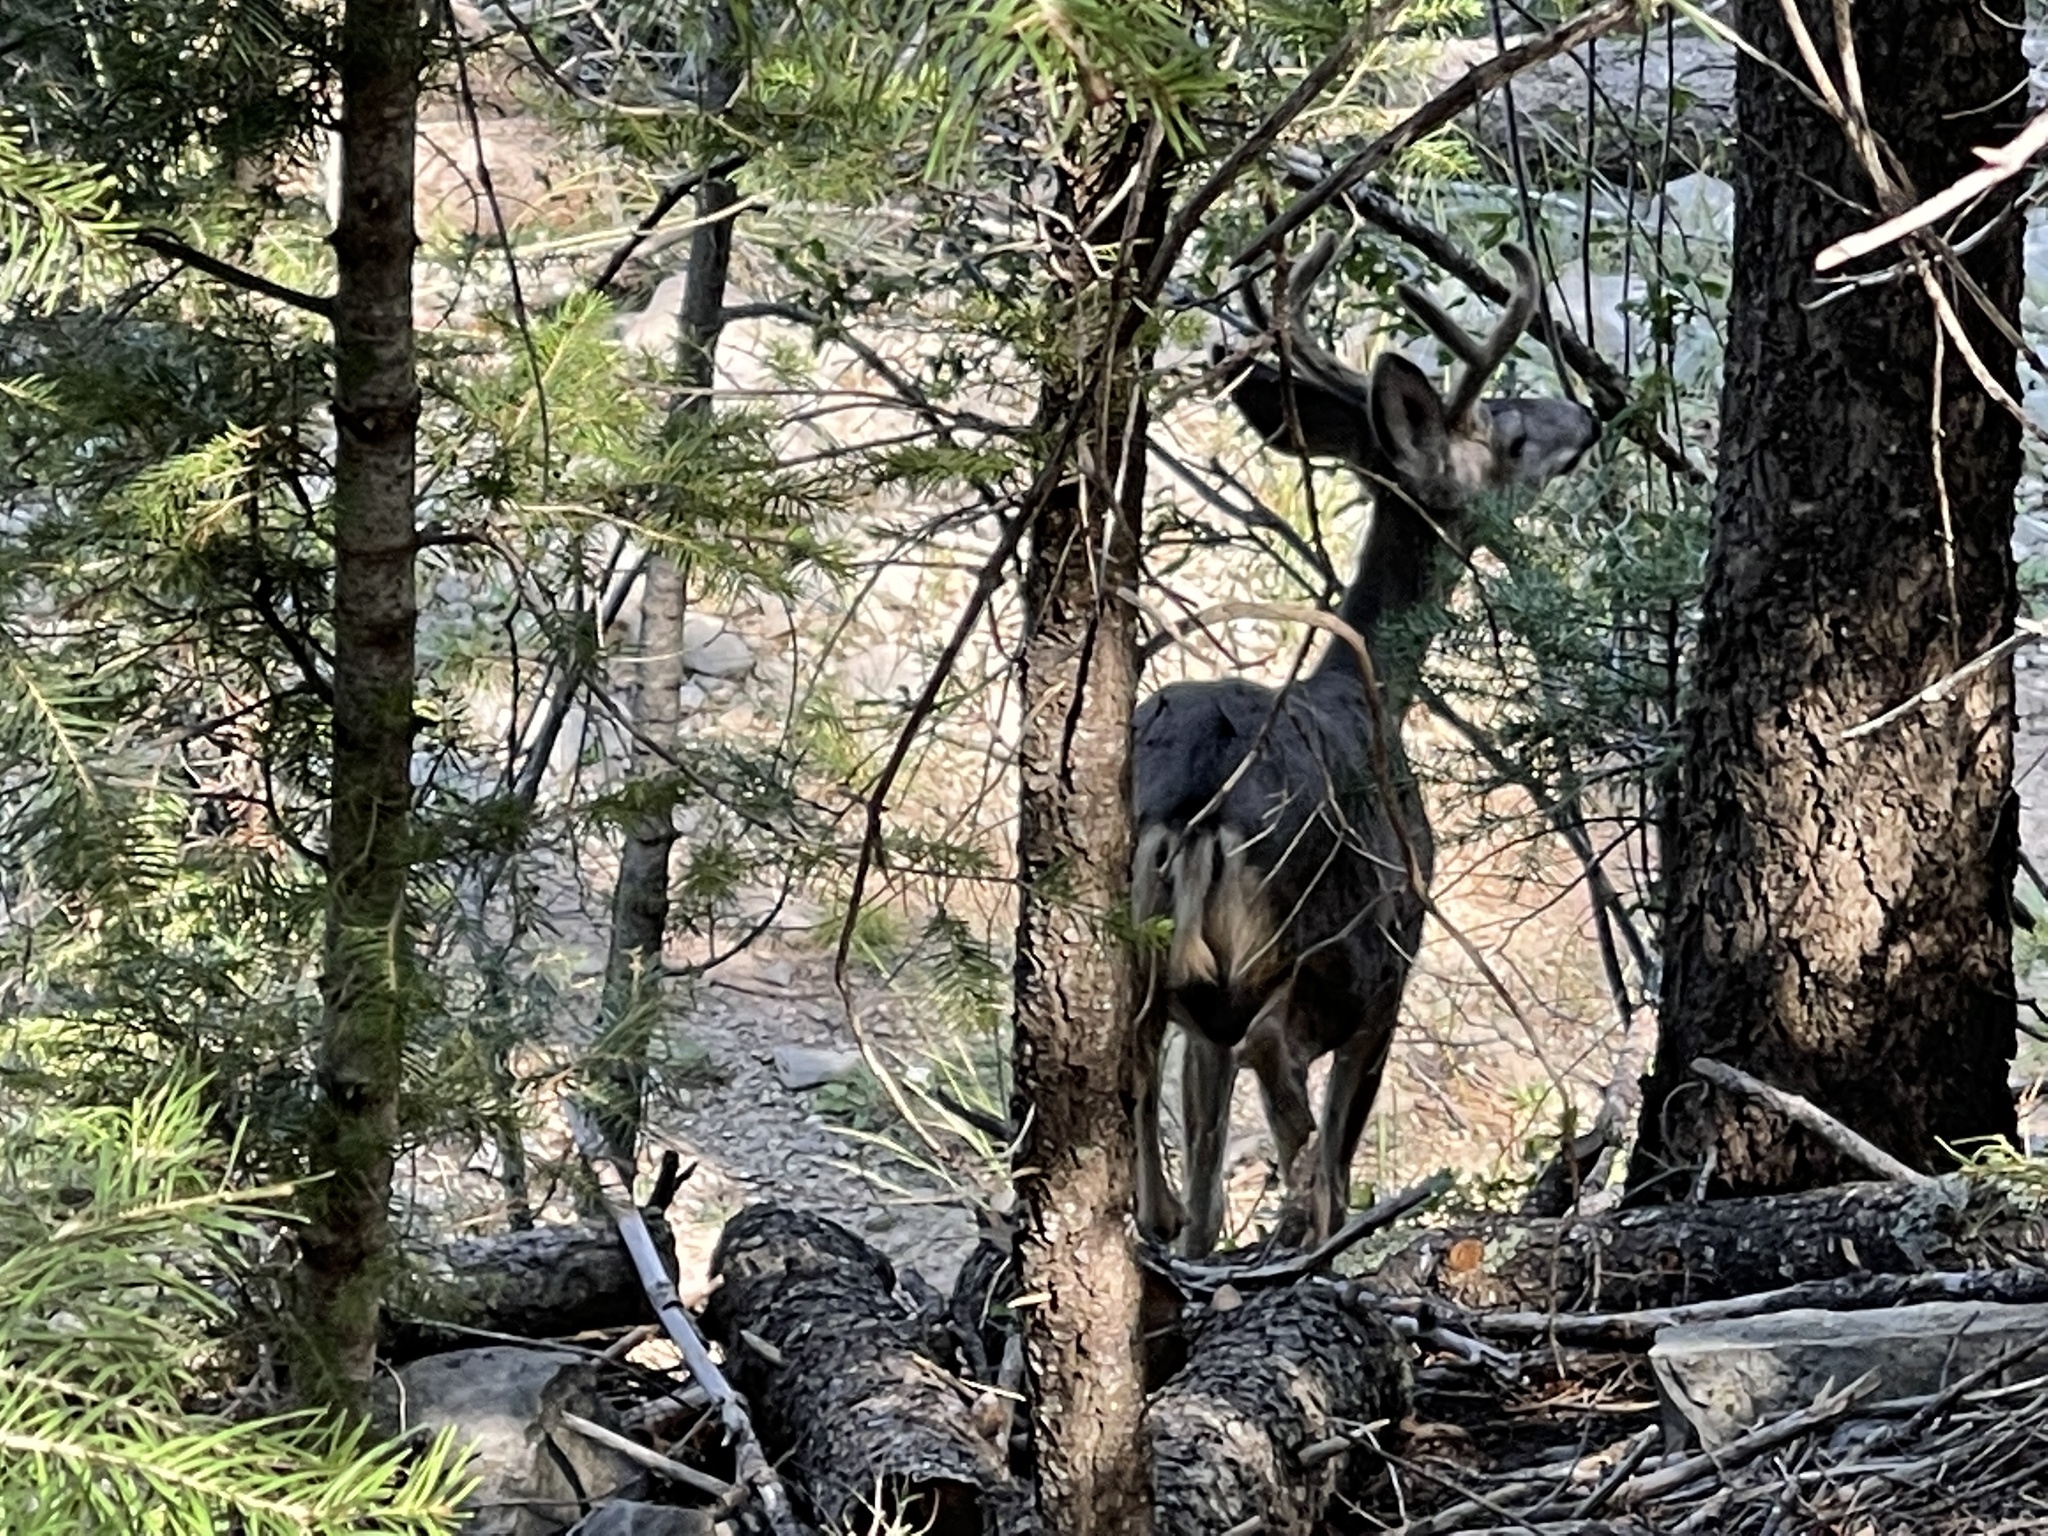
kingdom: Animalia
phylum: Chordata
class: Mammalia
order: Artiodactyla
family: Cervidae
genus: Odocoileus
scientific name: Odocoileus hemionus
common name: Mule deer
